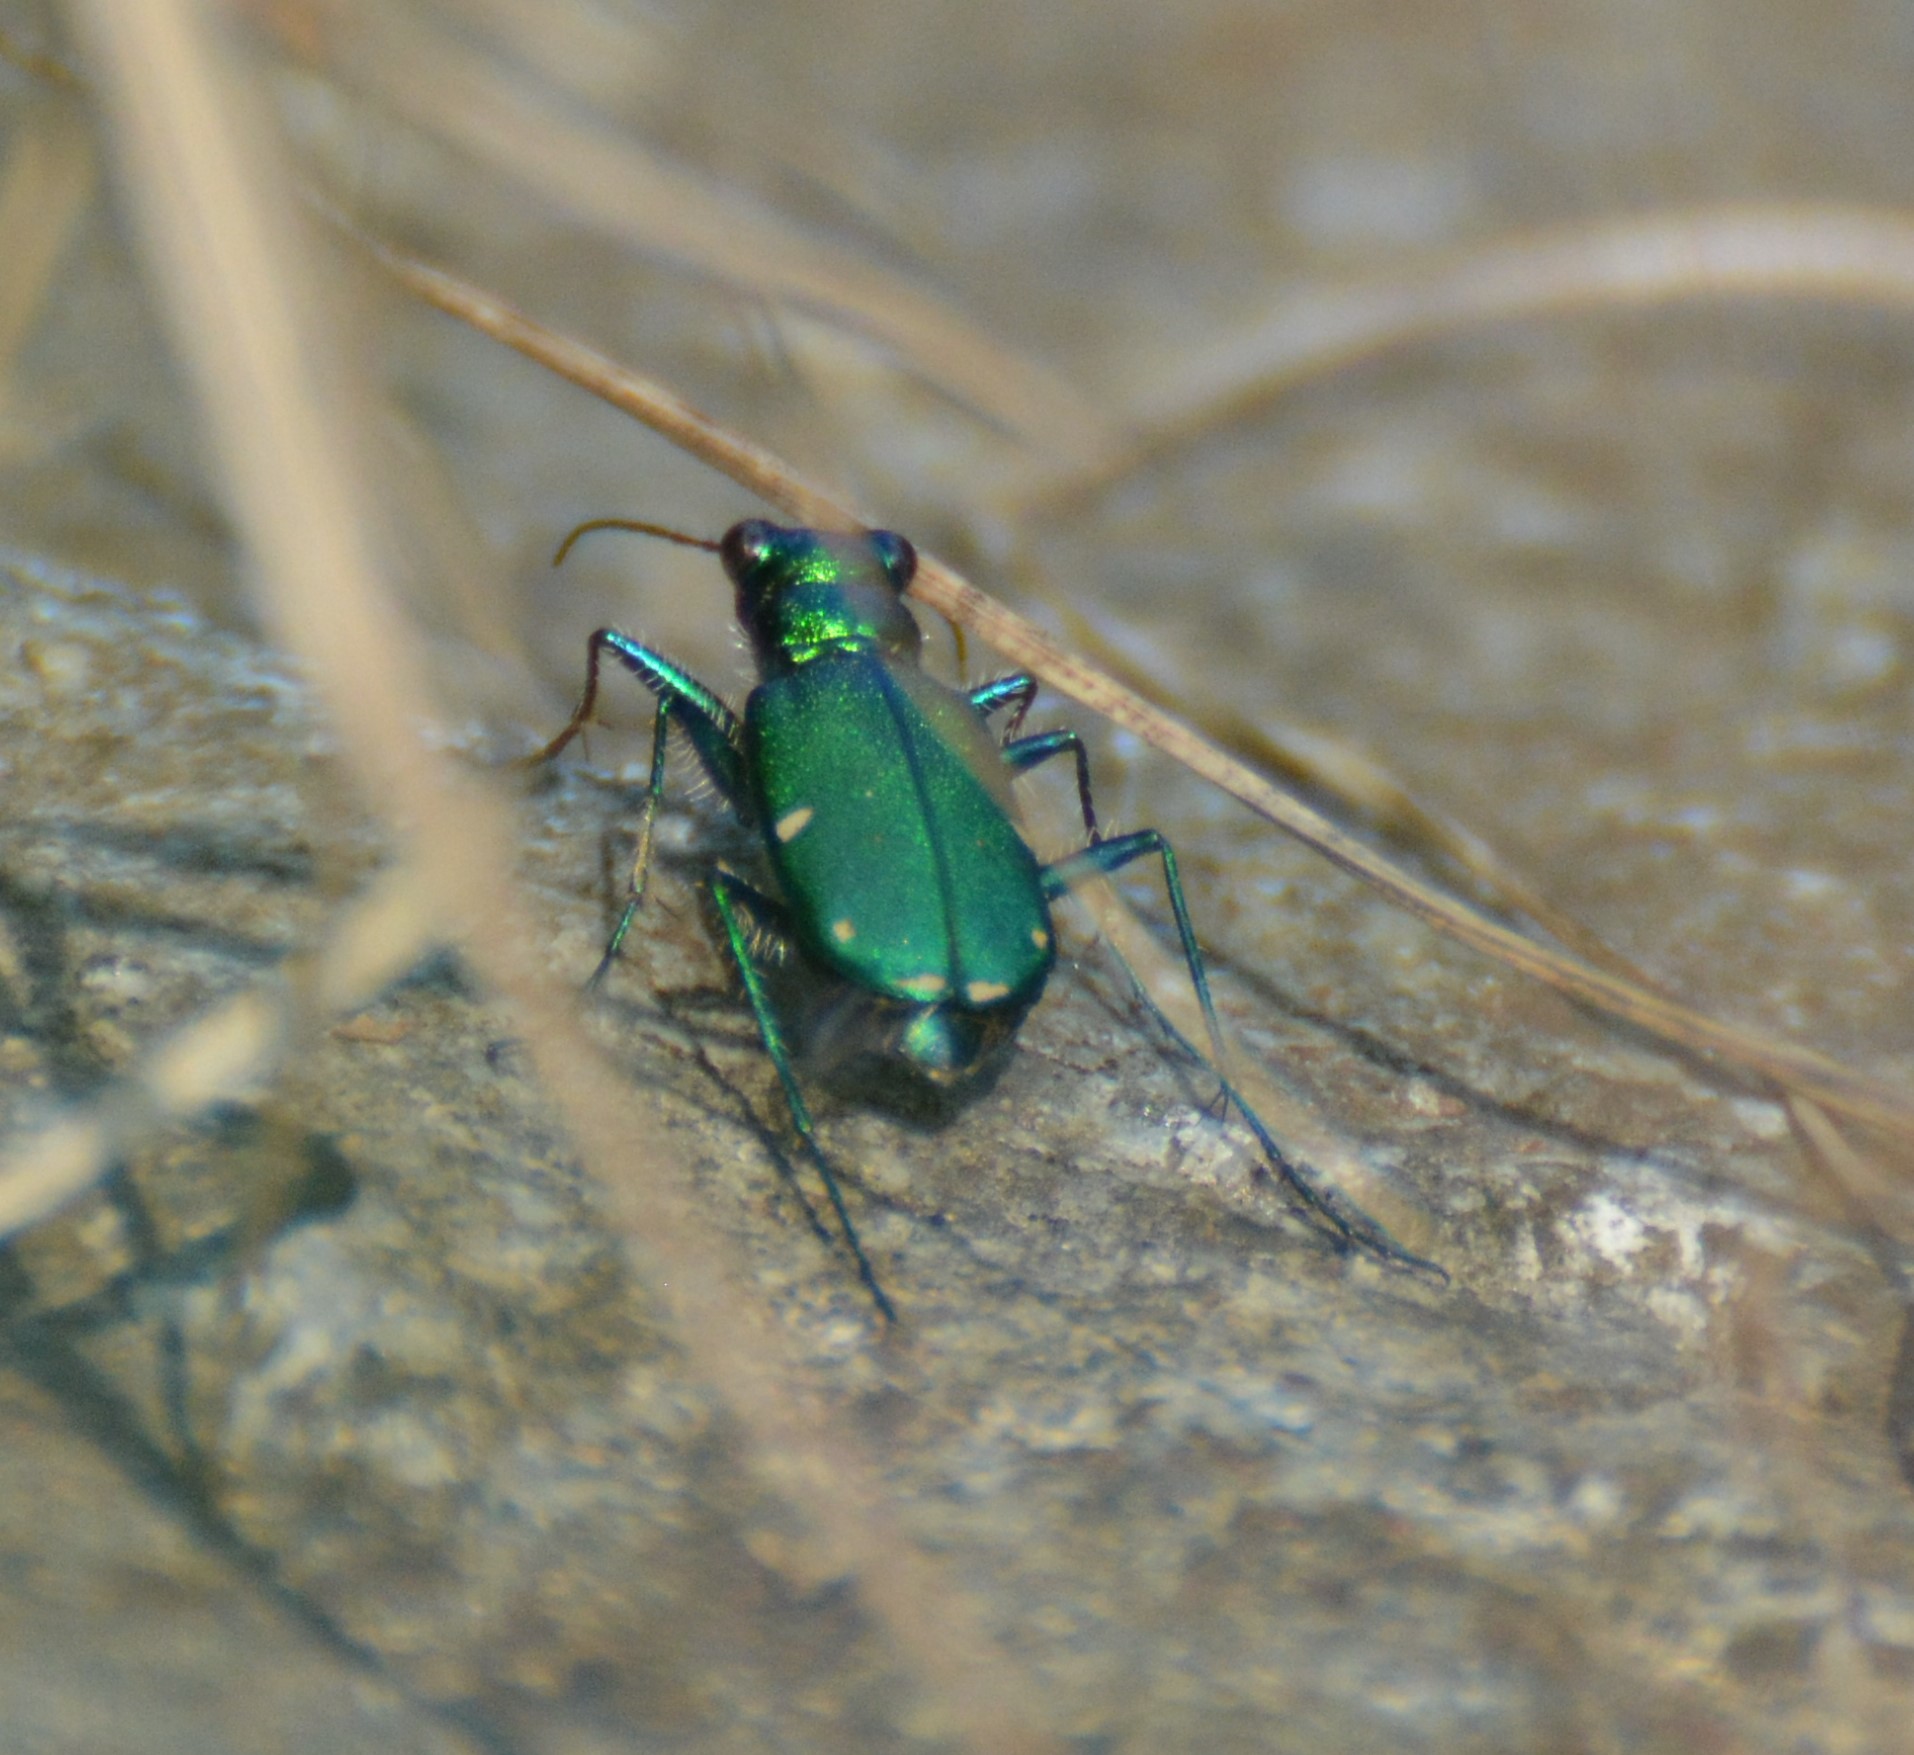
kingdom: Animalia
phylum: Arthropoda
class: Insecta
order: Coleoptera
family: Carabidae
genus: Cicindela
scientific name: Cicindela sexguttata
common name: Six-spotted tiger beetle
